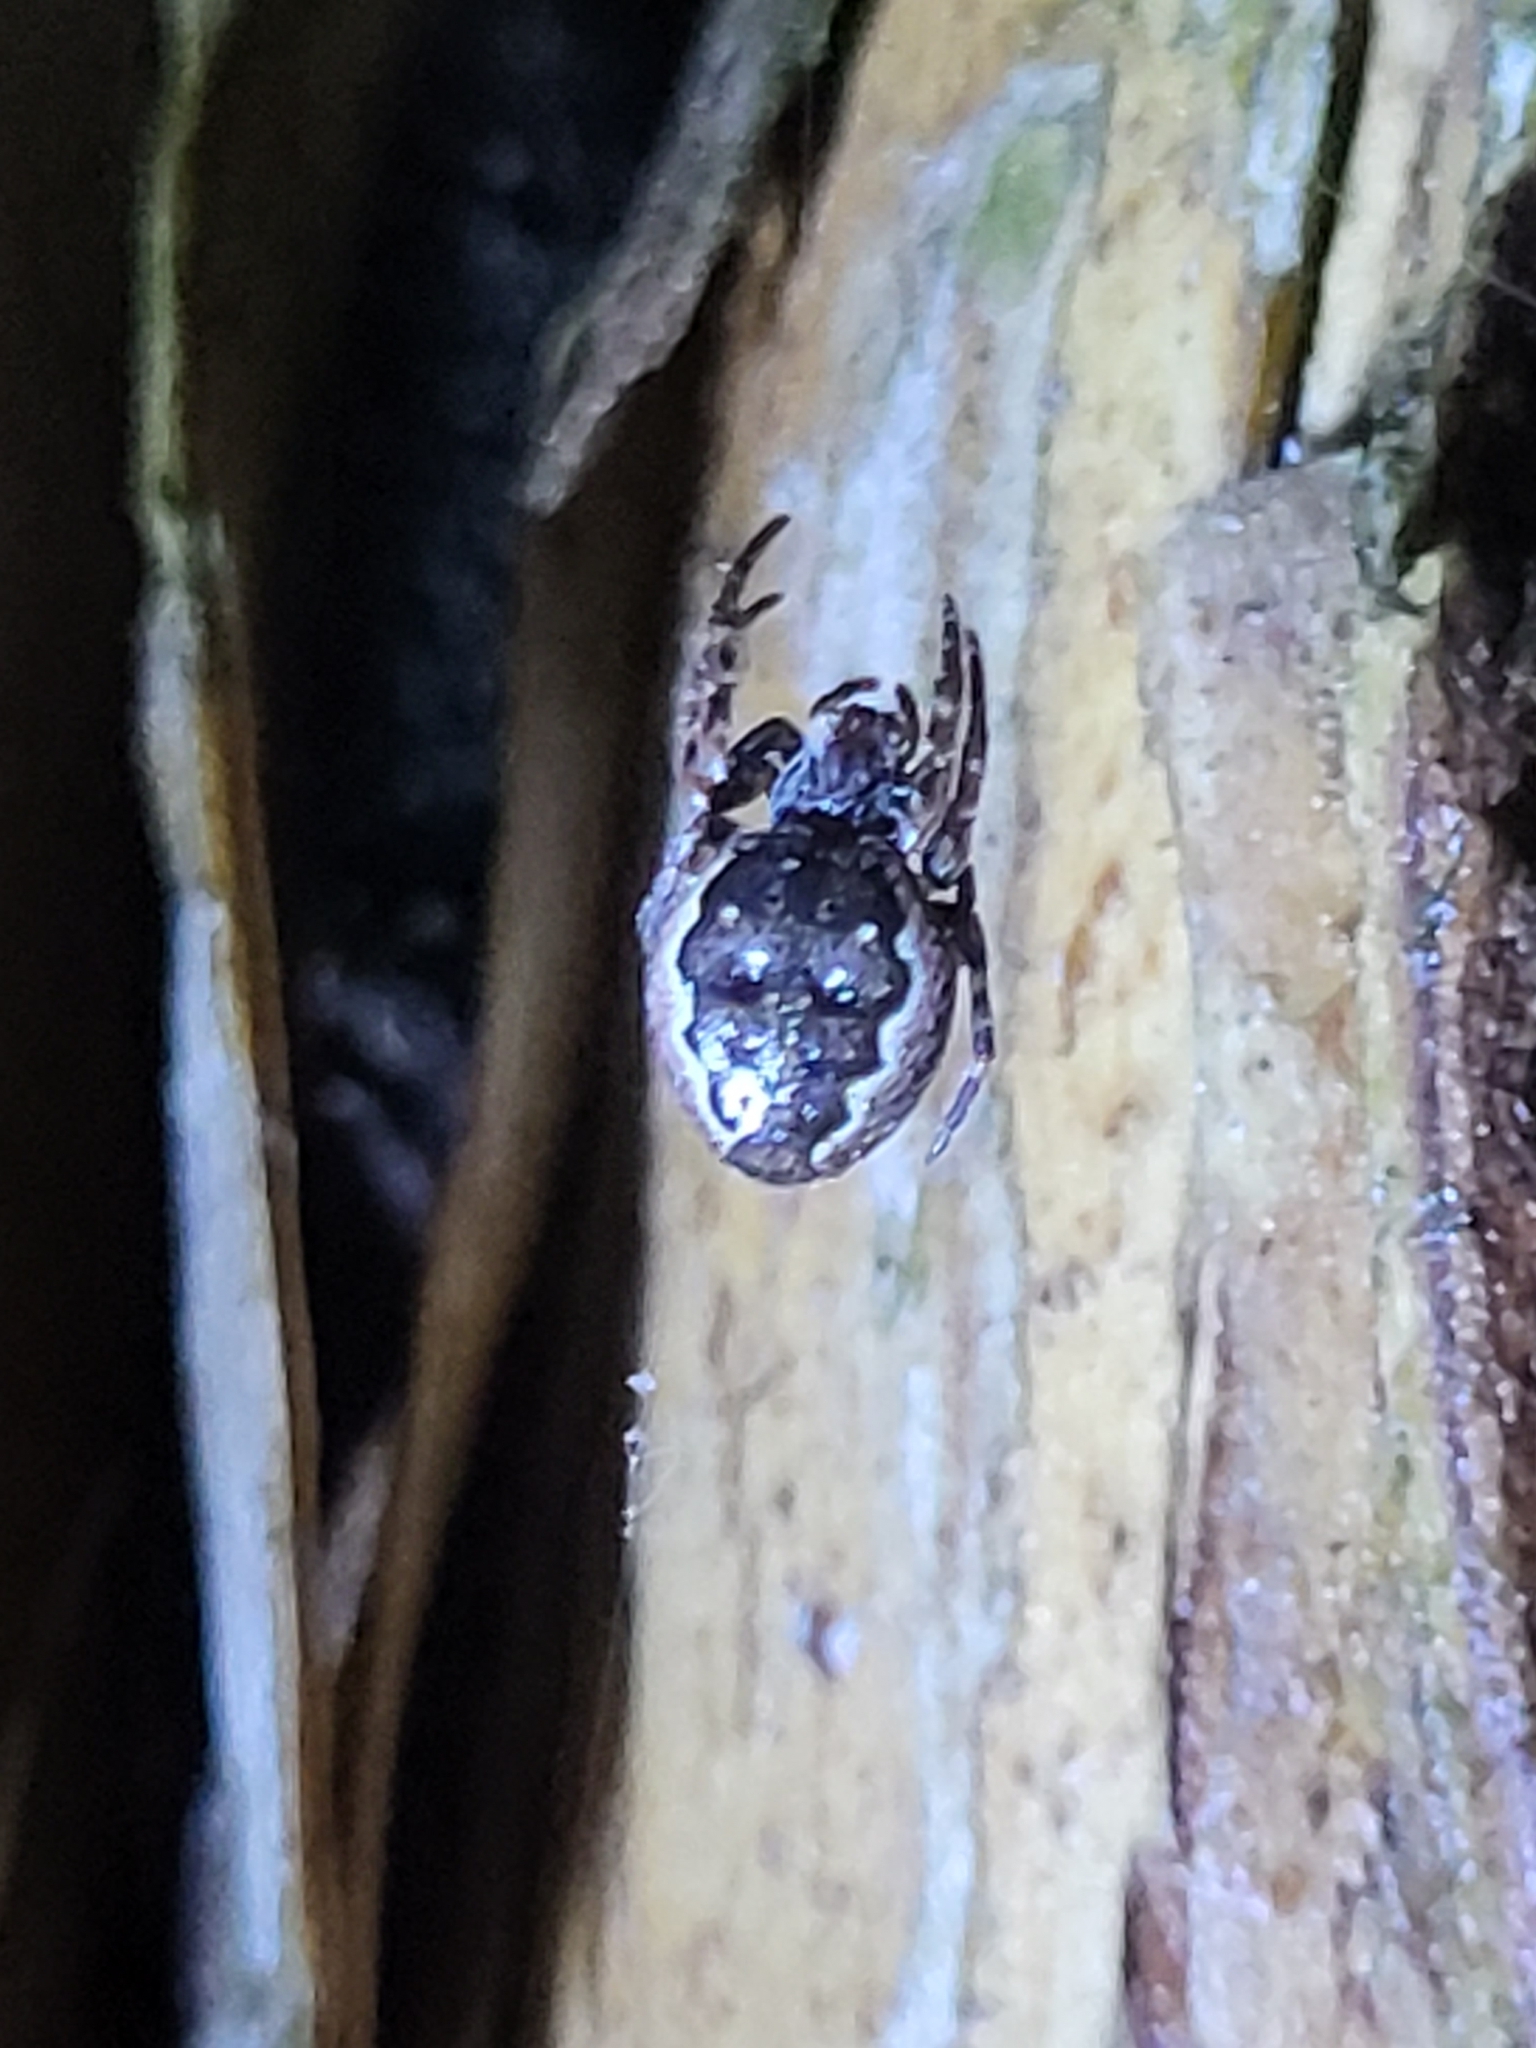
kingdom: Animalia
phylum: Arthropoda
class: Arachnida
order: Araneae
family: Araneidae
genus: Nuctenea
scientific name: Nuctenea umbratica
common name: Toad spider
